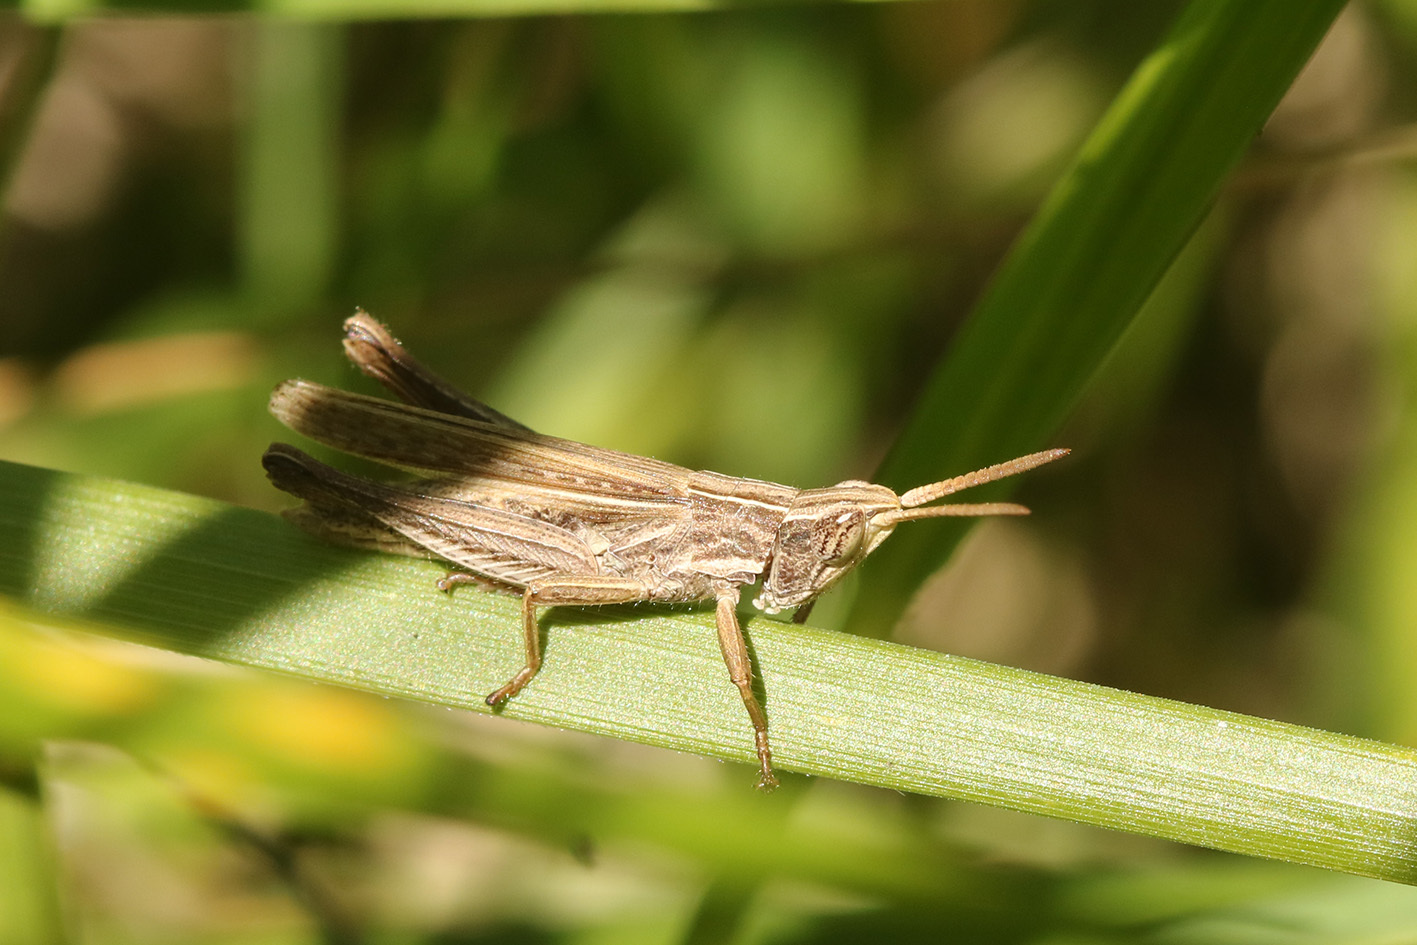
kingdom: Animalia
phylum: Arthropoda
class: Insecta
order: Orthoptera
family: Acrididae
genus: Laplatacris
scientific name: Laplatacris dispar
